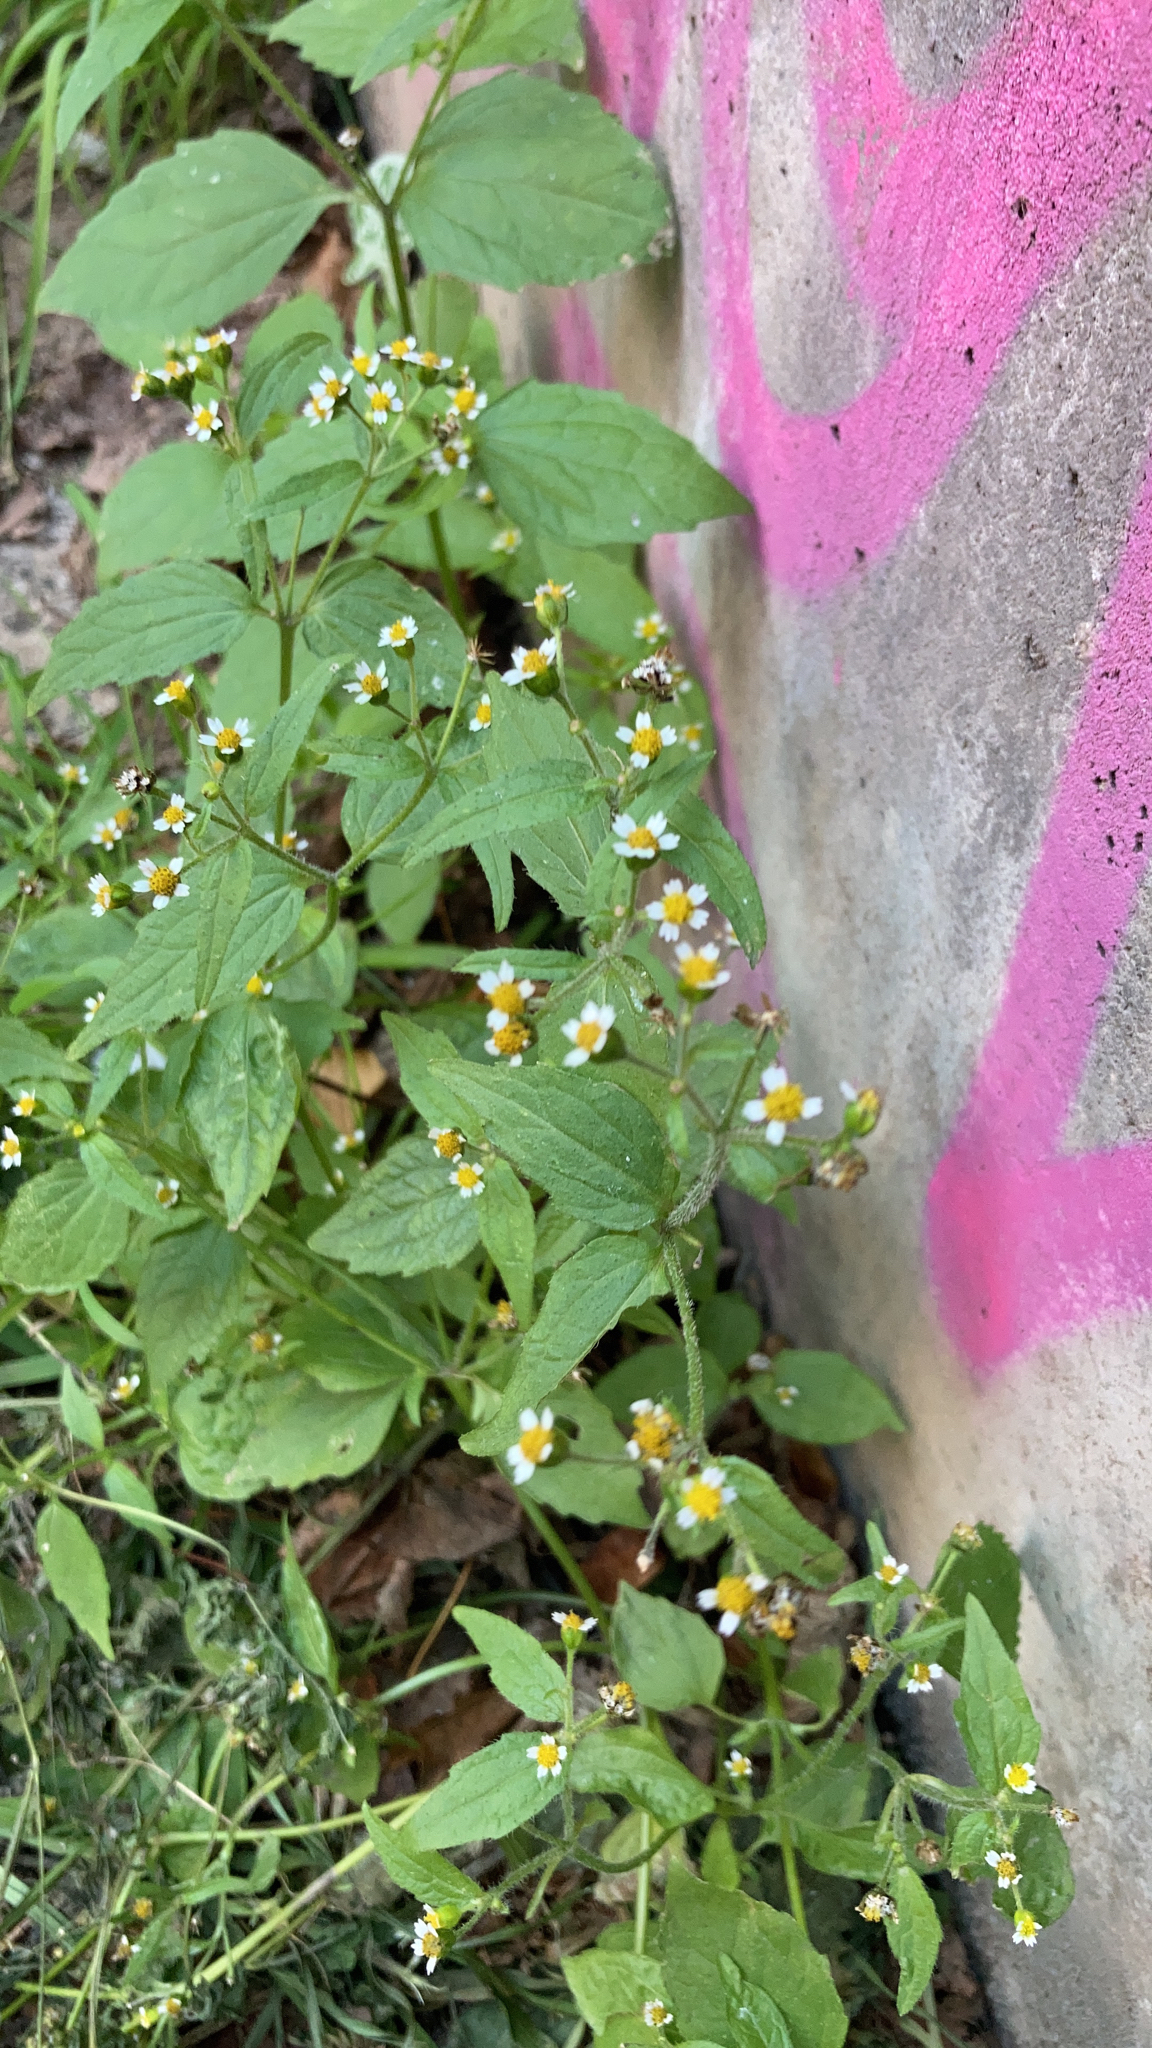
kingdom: Plantae
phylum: Tracheophyta
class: Magnoliopsida
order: Asterales
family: Asteraceae
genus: Galinsoga
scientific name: Galinsoga quadriradiata
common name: Shaggy soldier
